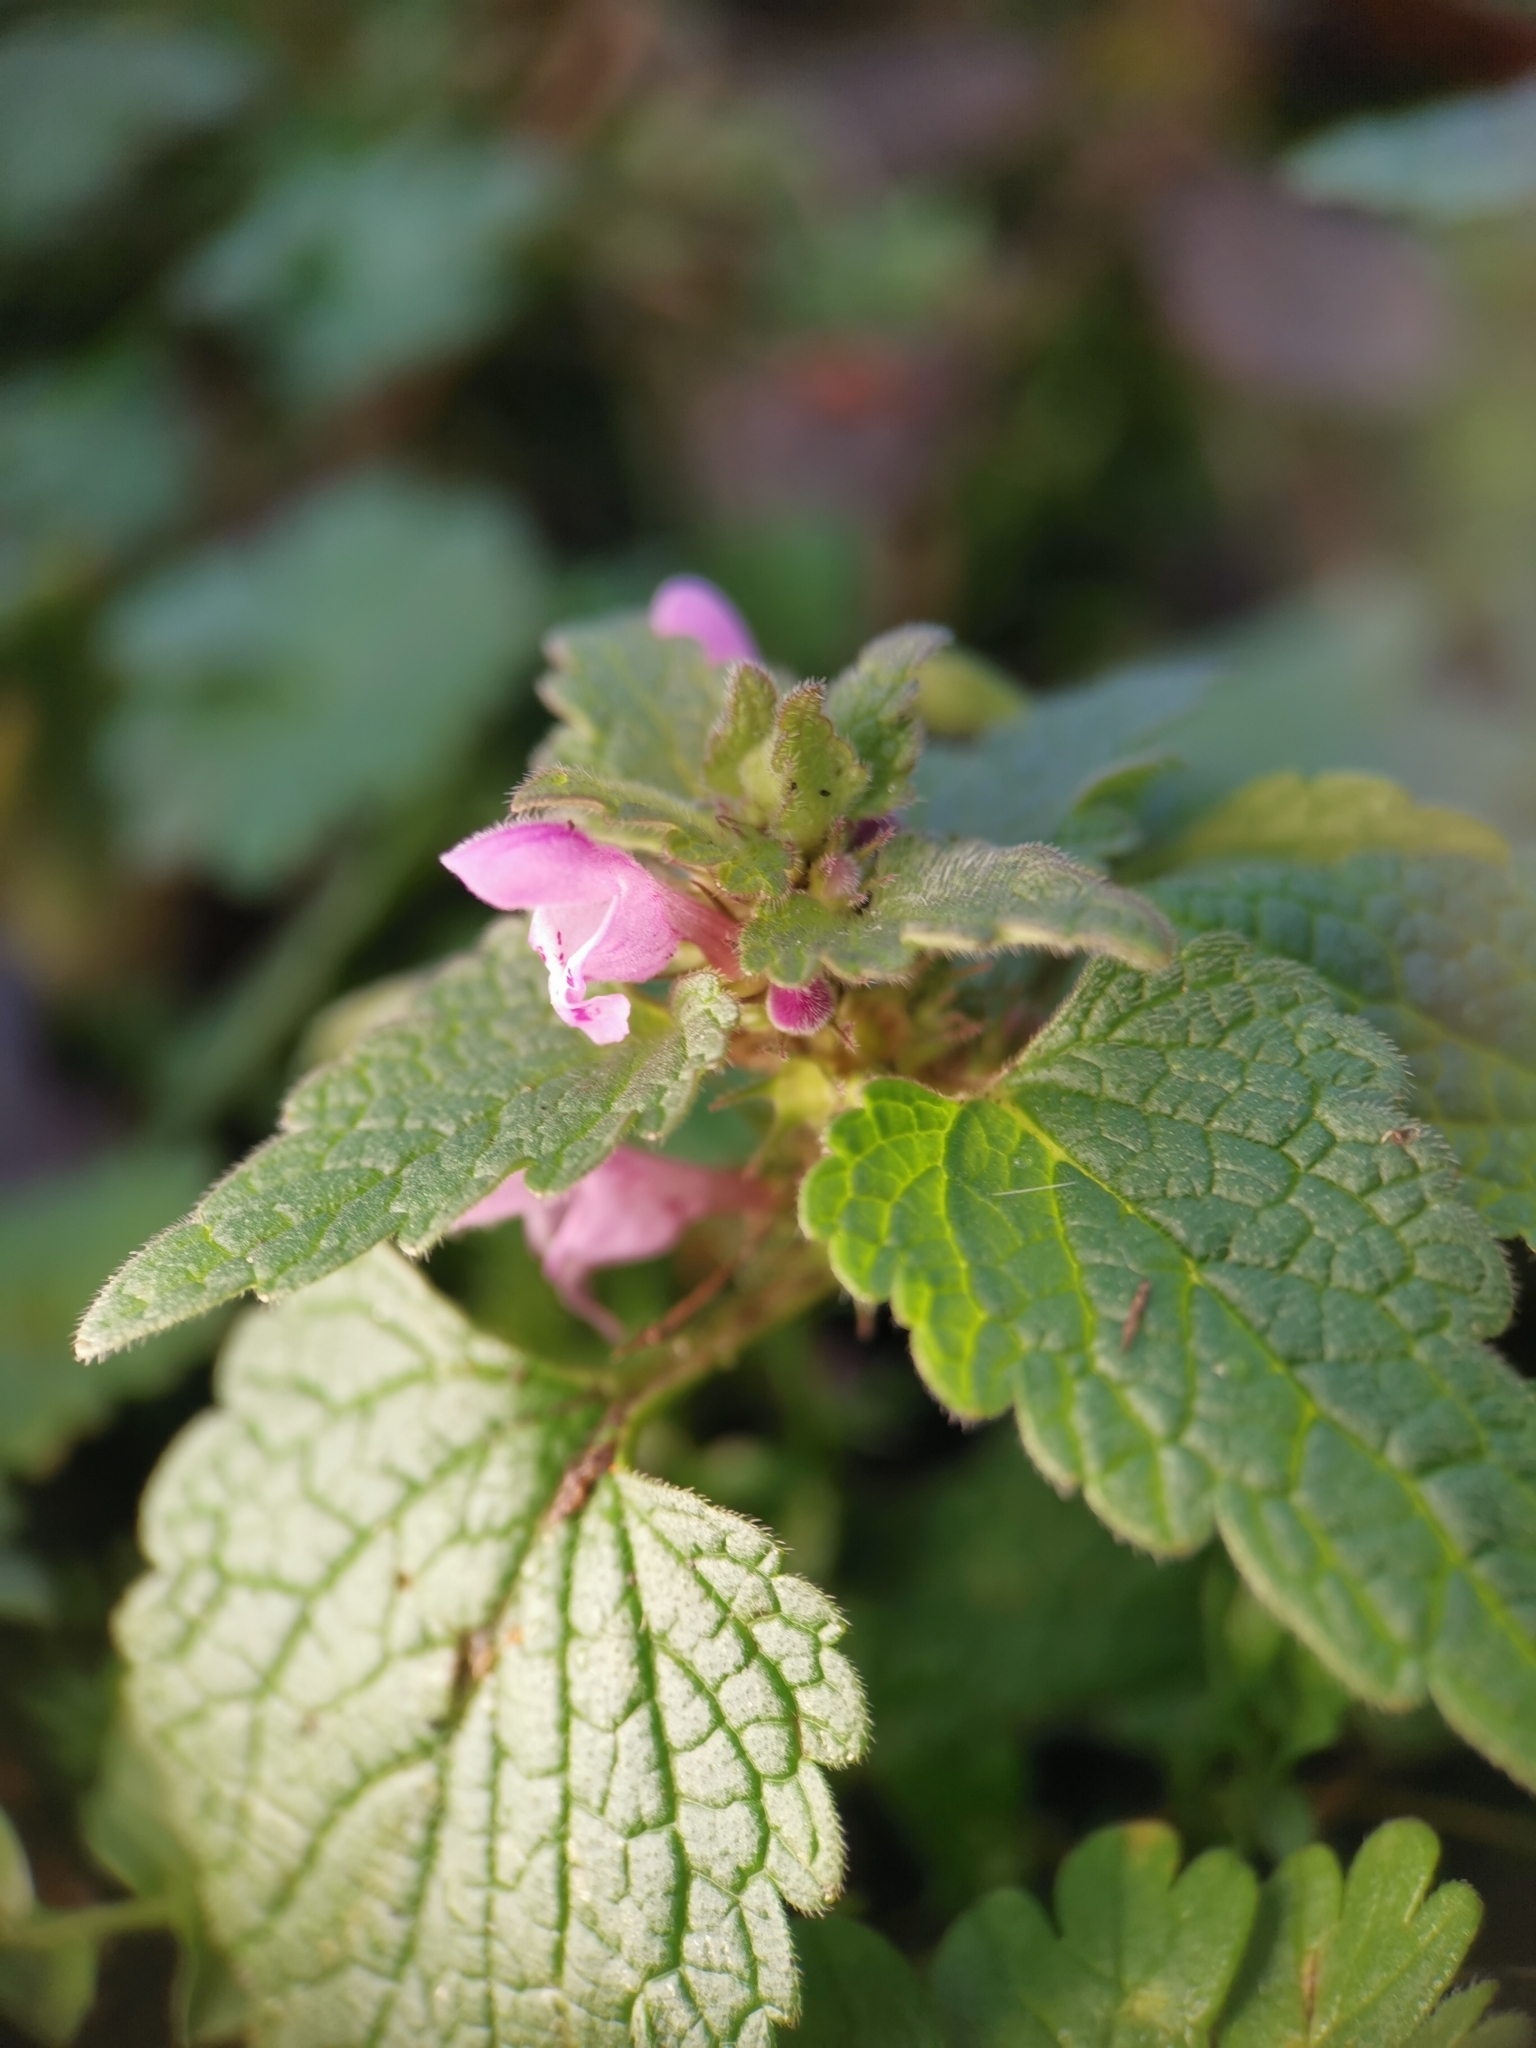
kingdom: Plantae
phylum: Tracheophyta
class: Magnoliopsida
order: Lamiales
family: Lamiaceae
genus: Lamium
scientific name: Lamium purpureum
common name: Red dead-nettle
